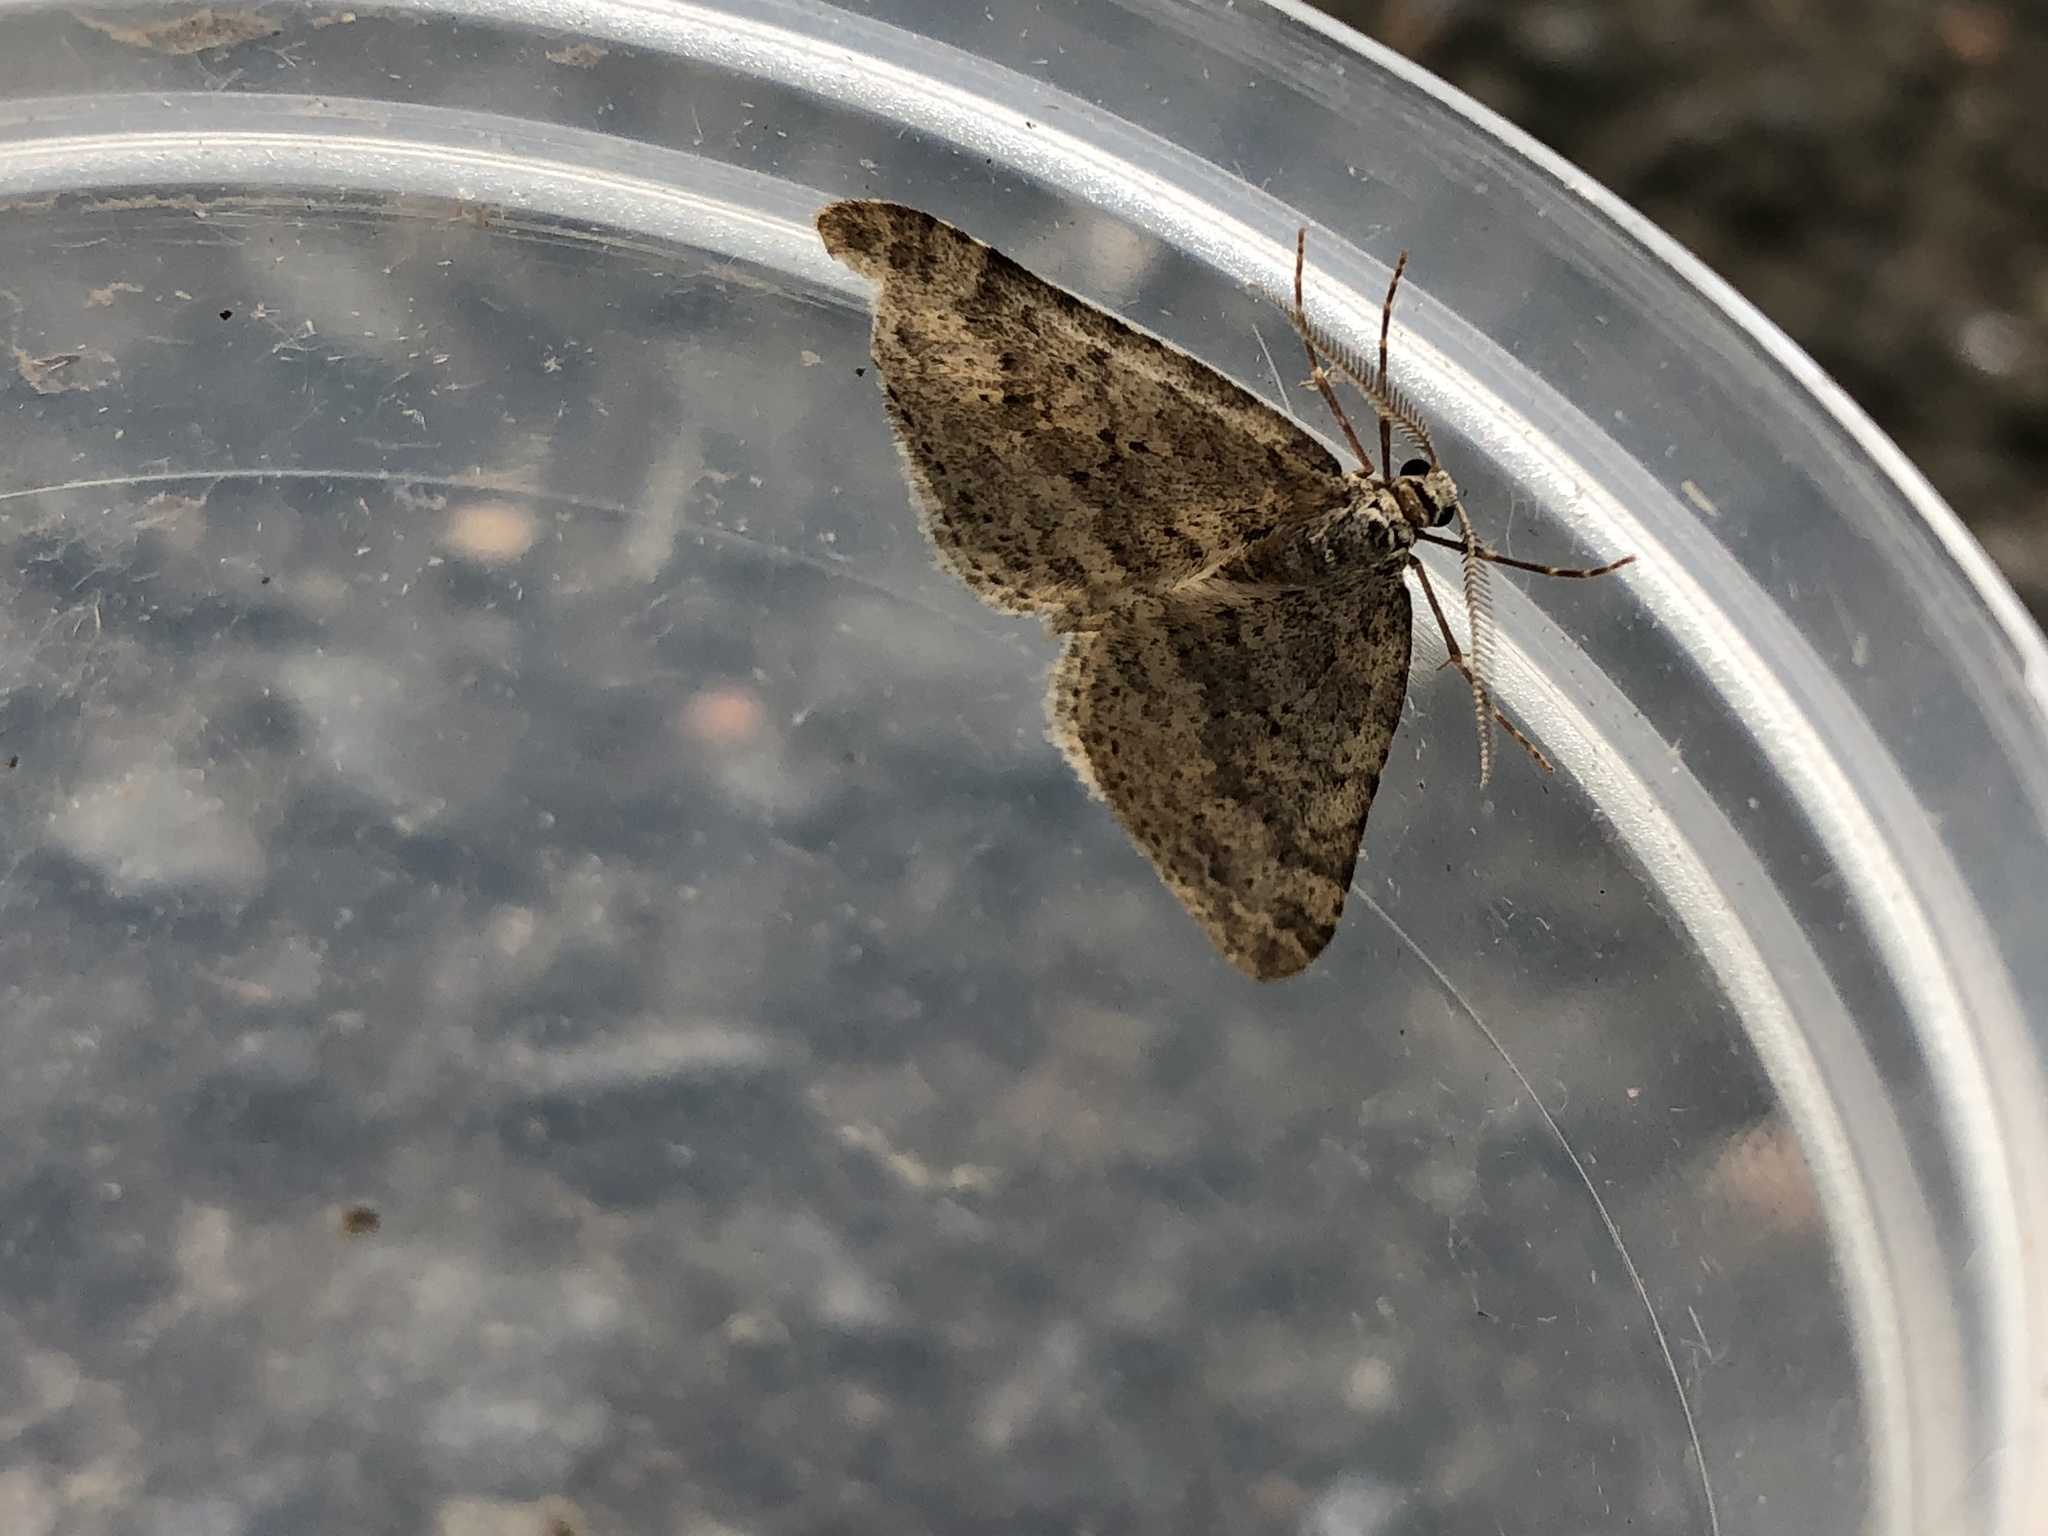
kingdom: Animalia
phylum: Arthropoda
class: Insecta
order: Lepidoptera
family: Geometridae
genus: Colostygia
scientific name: Colostygia multistrigaria
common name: Mottled grey
